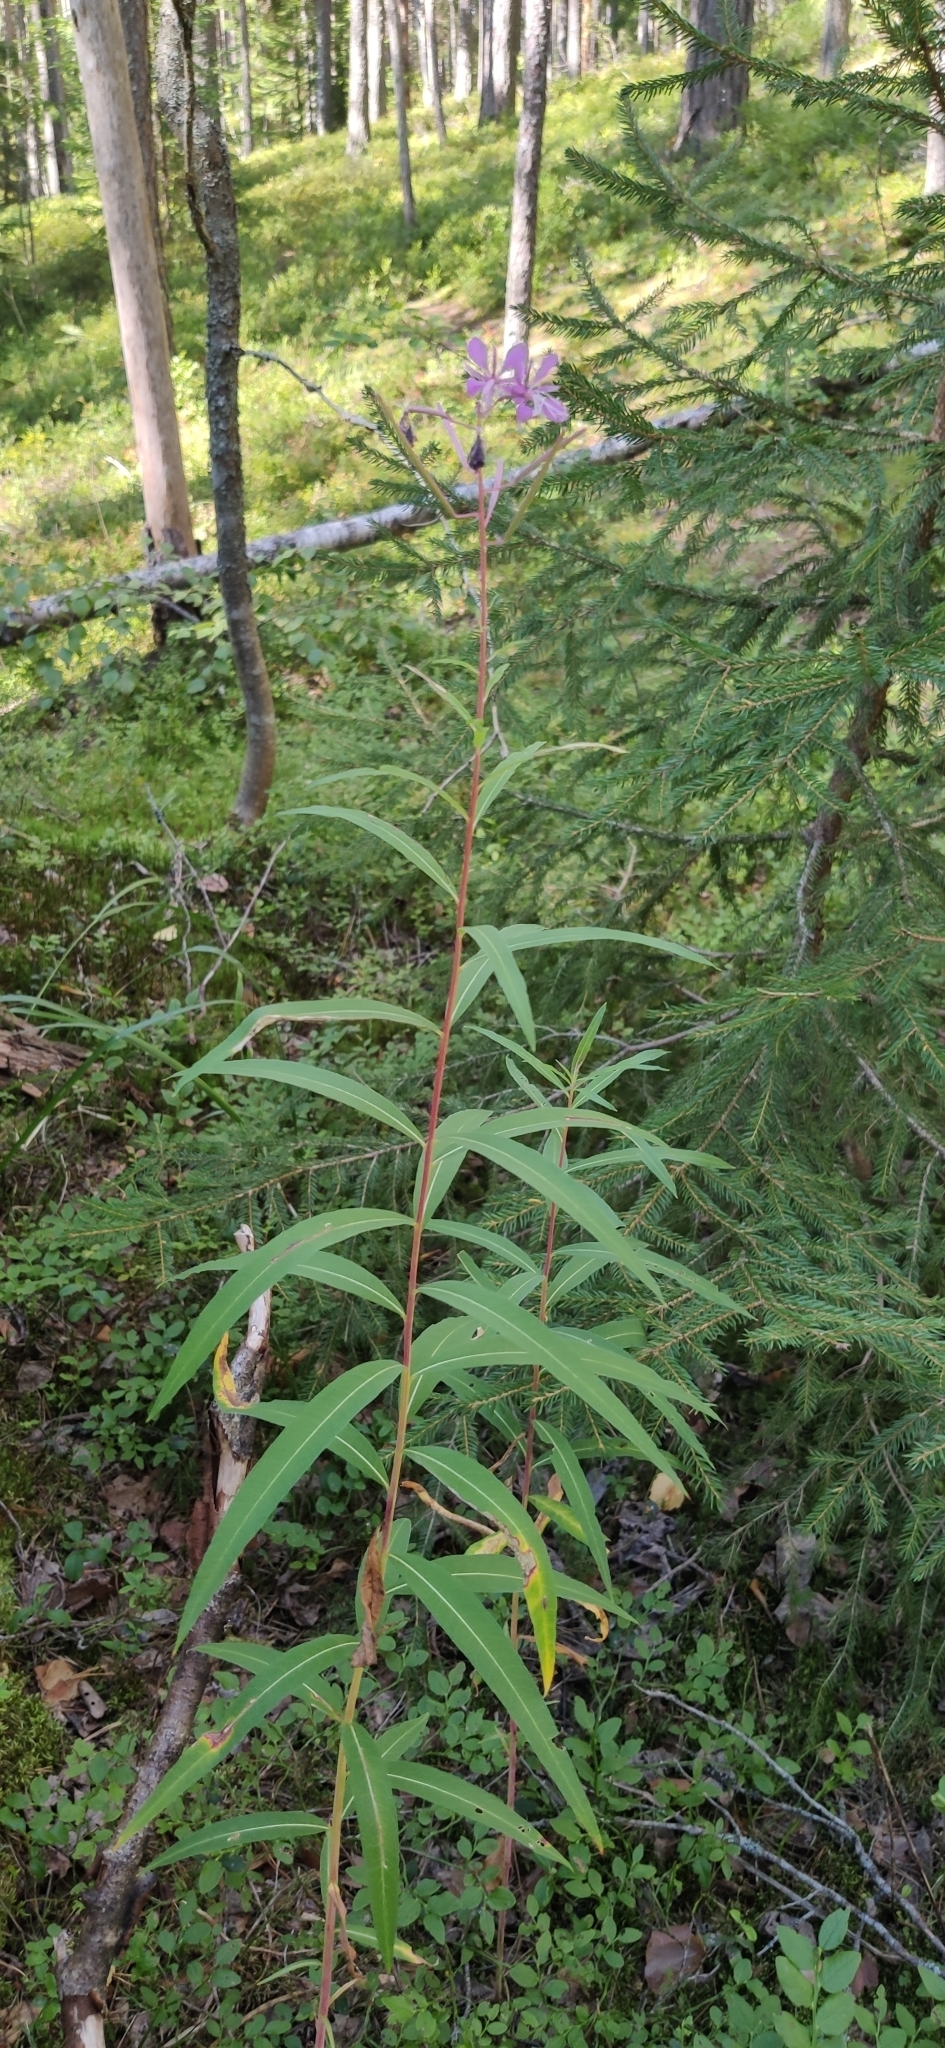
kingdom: Plantae
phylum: Tracheophyta
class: Magnoliopsida
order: Myrtales
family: Onagraceae
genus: Chamaenerion
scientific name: Chamaenerion angustifolium
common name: Fireweed
